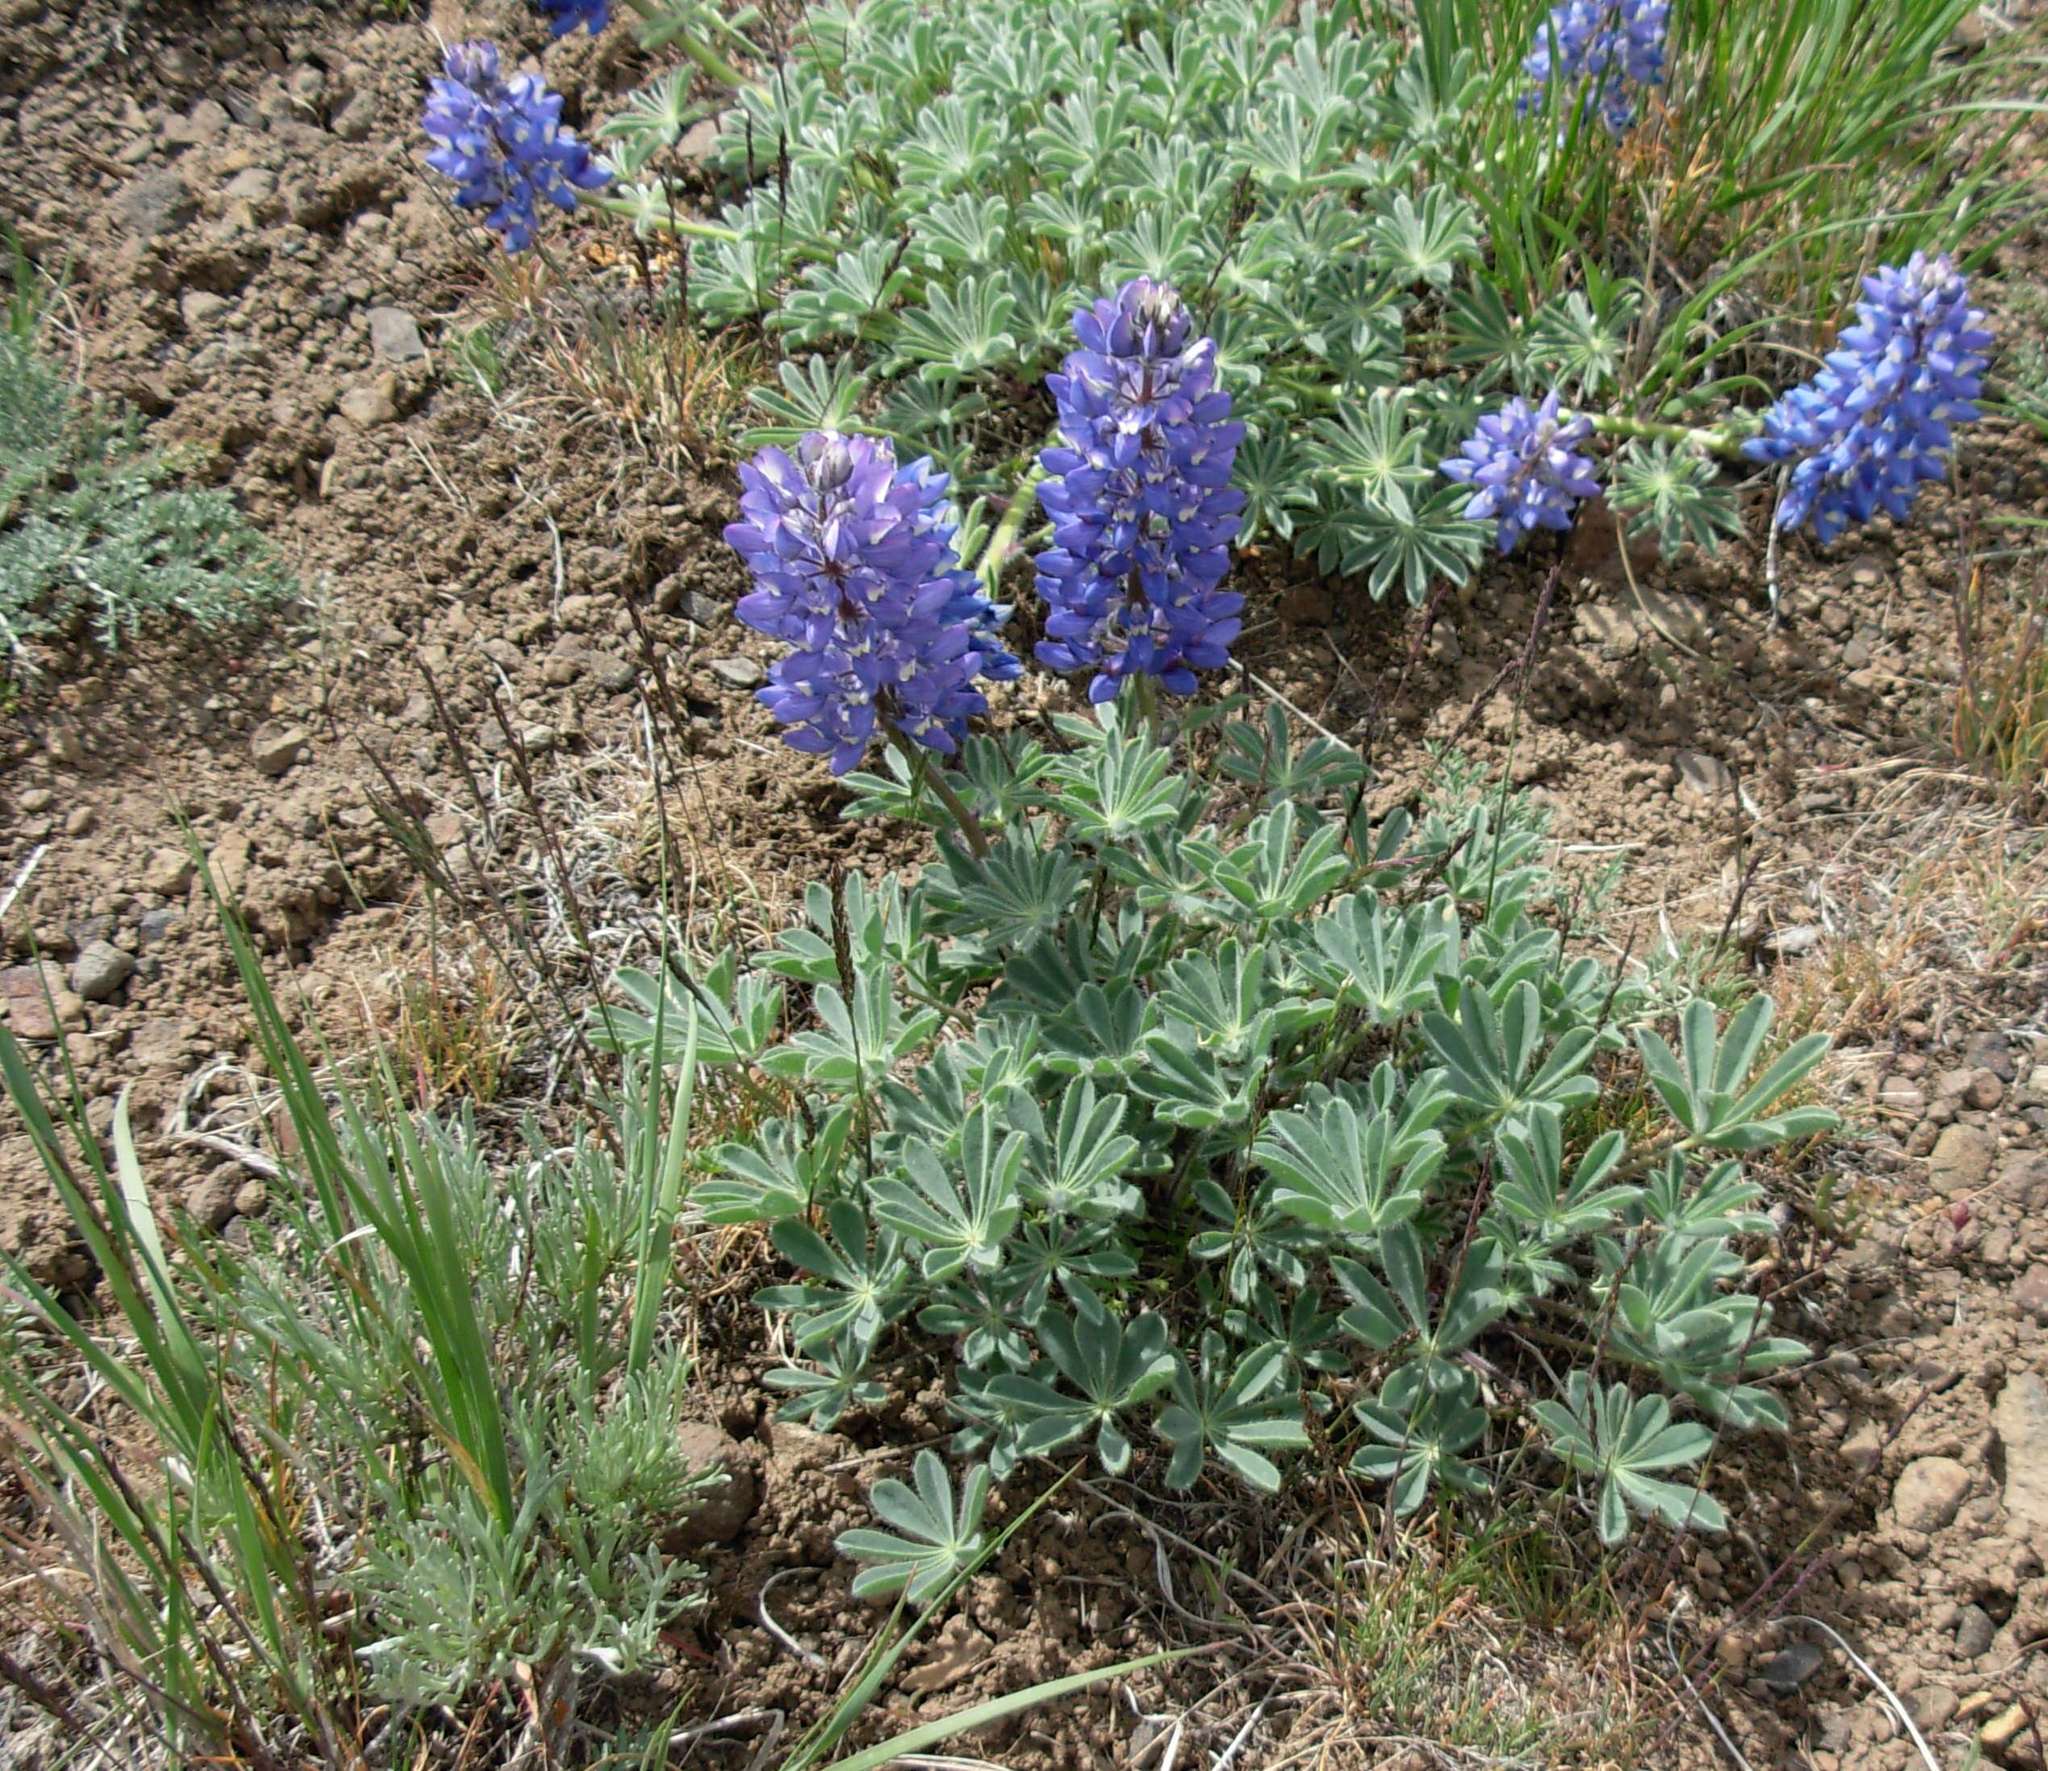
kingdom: Plantae
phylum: Tracheophyta
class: Magnoliopsida
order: Fabales
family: Fabaceae
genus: Lupinus
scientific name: Lupinus saxosus
